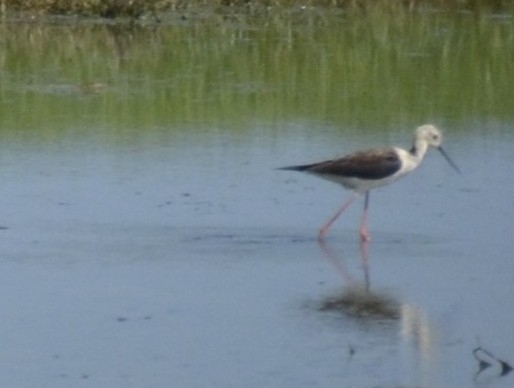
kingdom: Animalia
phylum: Chordata
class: Aves
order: Charadriiformes
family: Recurvirostridae
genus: Himantopus
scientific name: Himantopus himantopus
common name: Black-winged stilt
